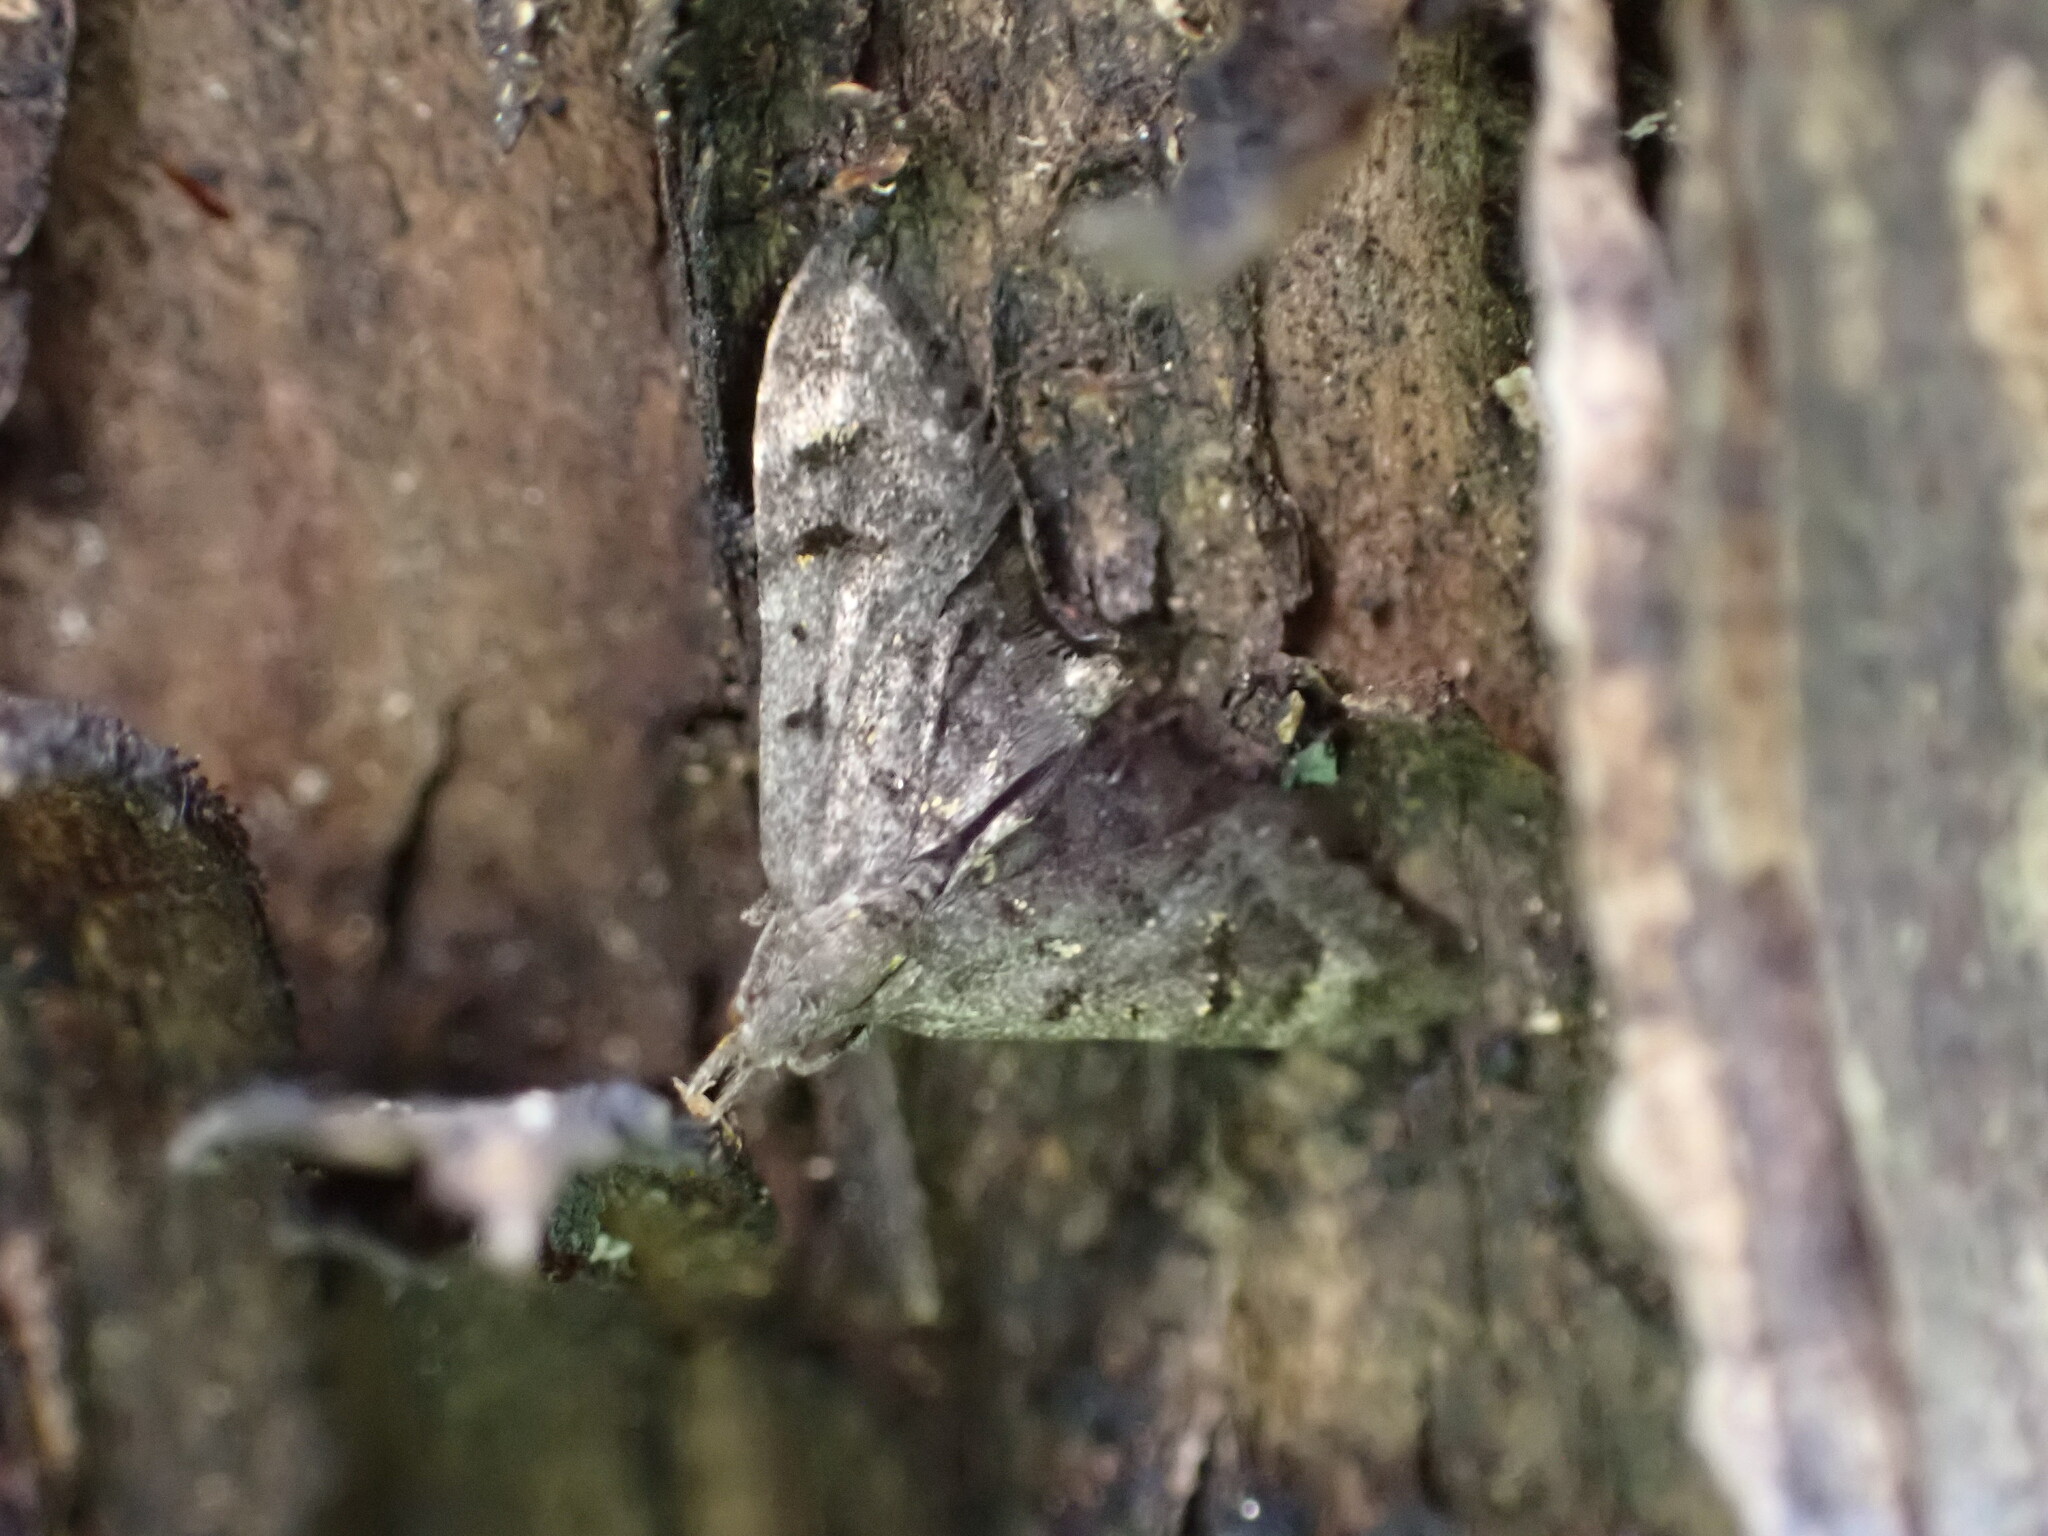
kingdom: Animalia
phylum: Arthropoda
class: Insecta
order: Lepidoptera
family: Copromorphidae
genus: Isonomeutis
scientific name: Isonomeutis amauropa
